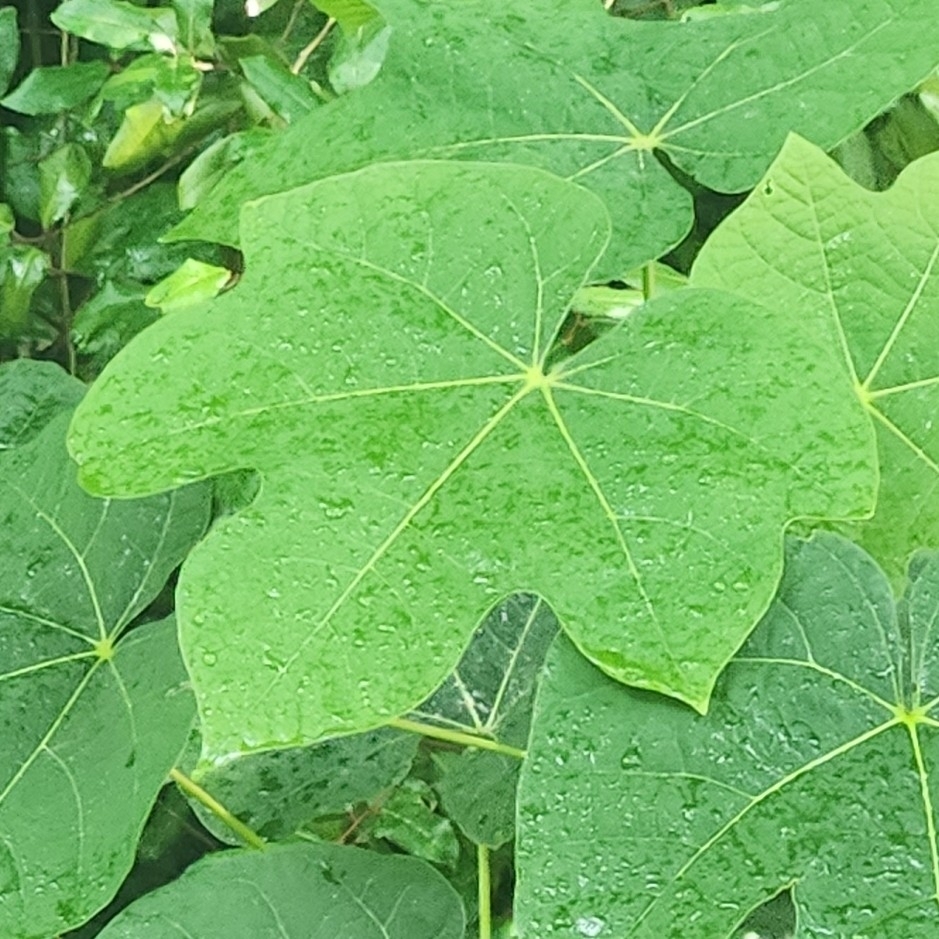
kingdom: Plantae
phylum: Tracheophyta
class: Magnoliopsida
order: Malvales
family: Malvaceae
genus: Firmiana
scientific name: Firmiana simplex
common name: Chinese parasoltree
